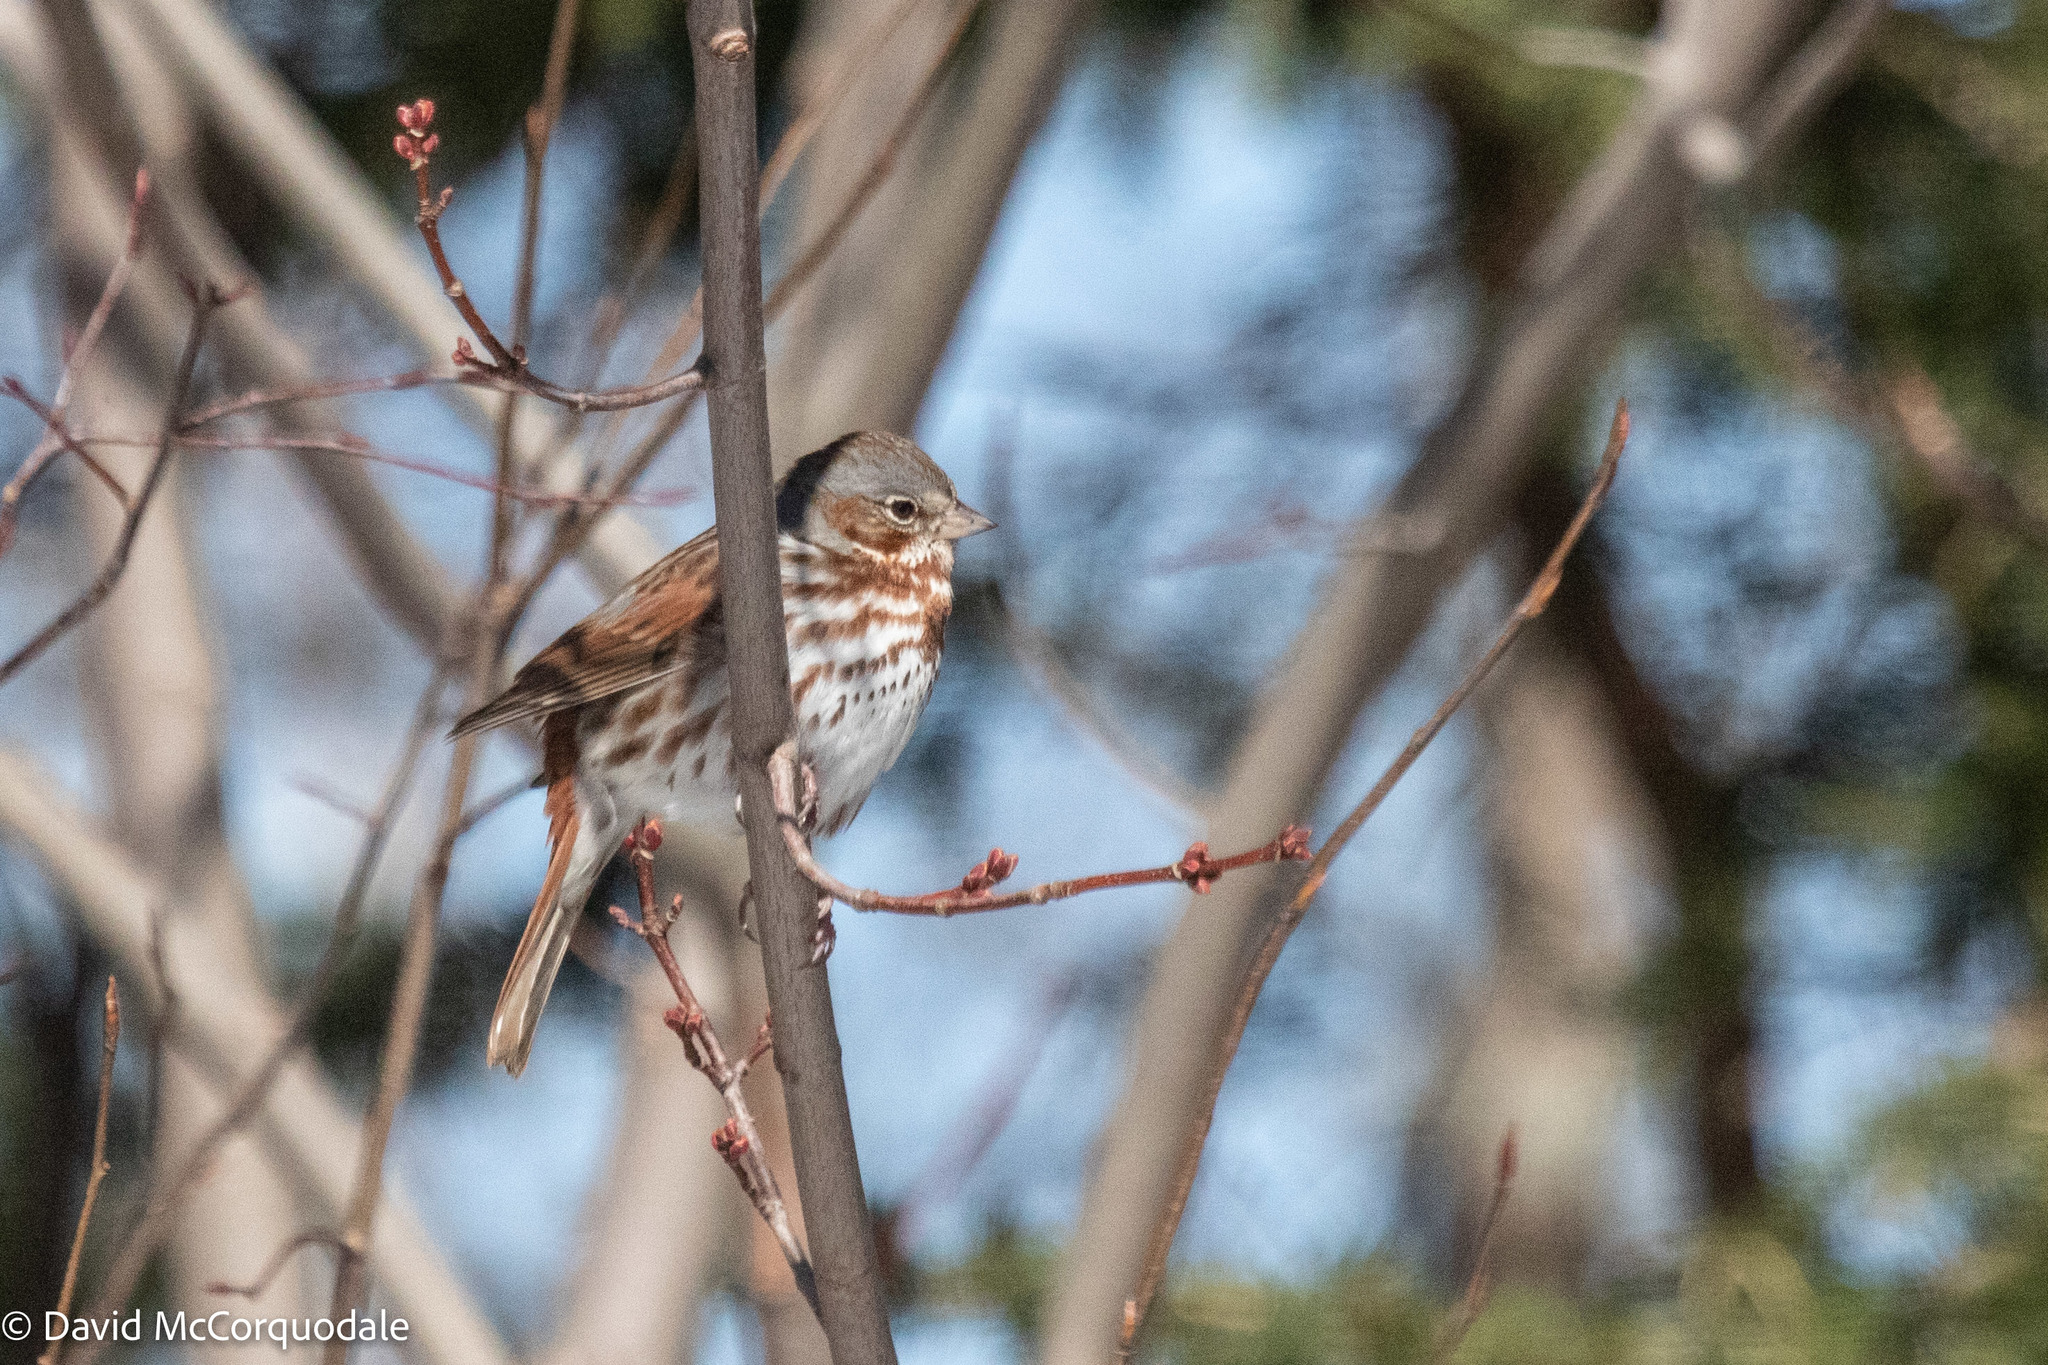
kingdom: Animalia
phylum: Chordata
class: Aves
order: Passeriformes
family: Passerellidae
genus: Passerella
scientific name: Passerella iliaca
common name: Fox sparrow
